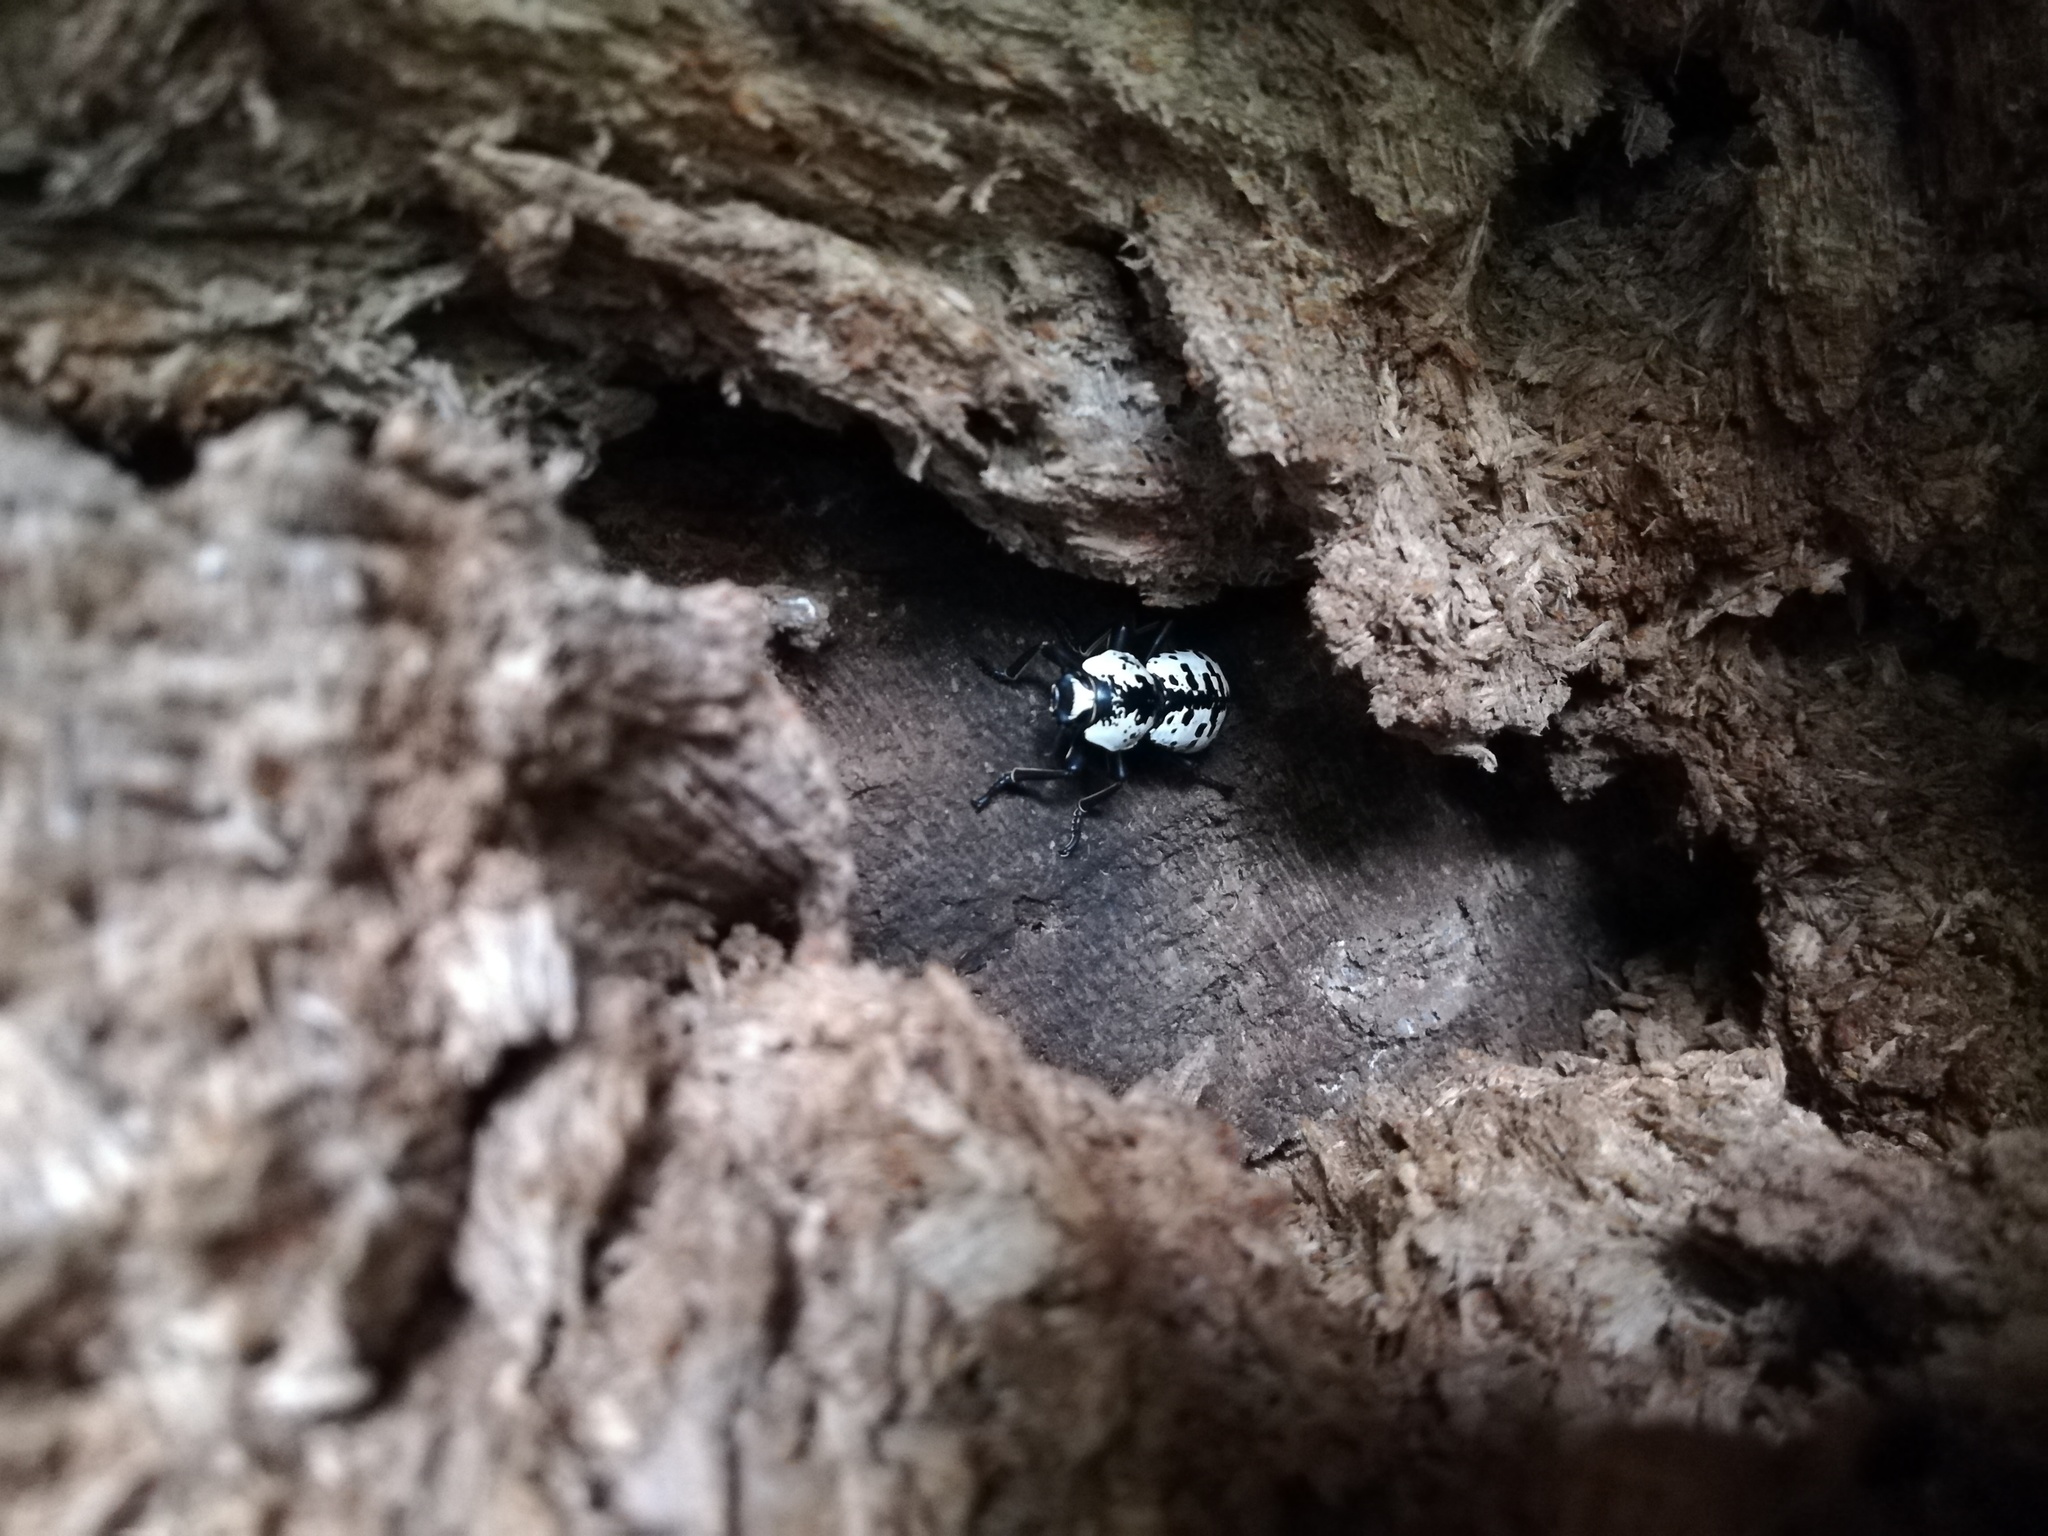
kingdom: Animalia
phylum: Arthropoda
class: Insecta
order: Coleoptera
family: Zopheridae
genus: Zopherus
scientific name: Zopherus nodulosus
